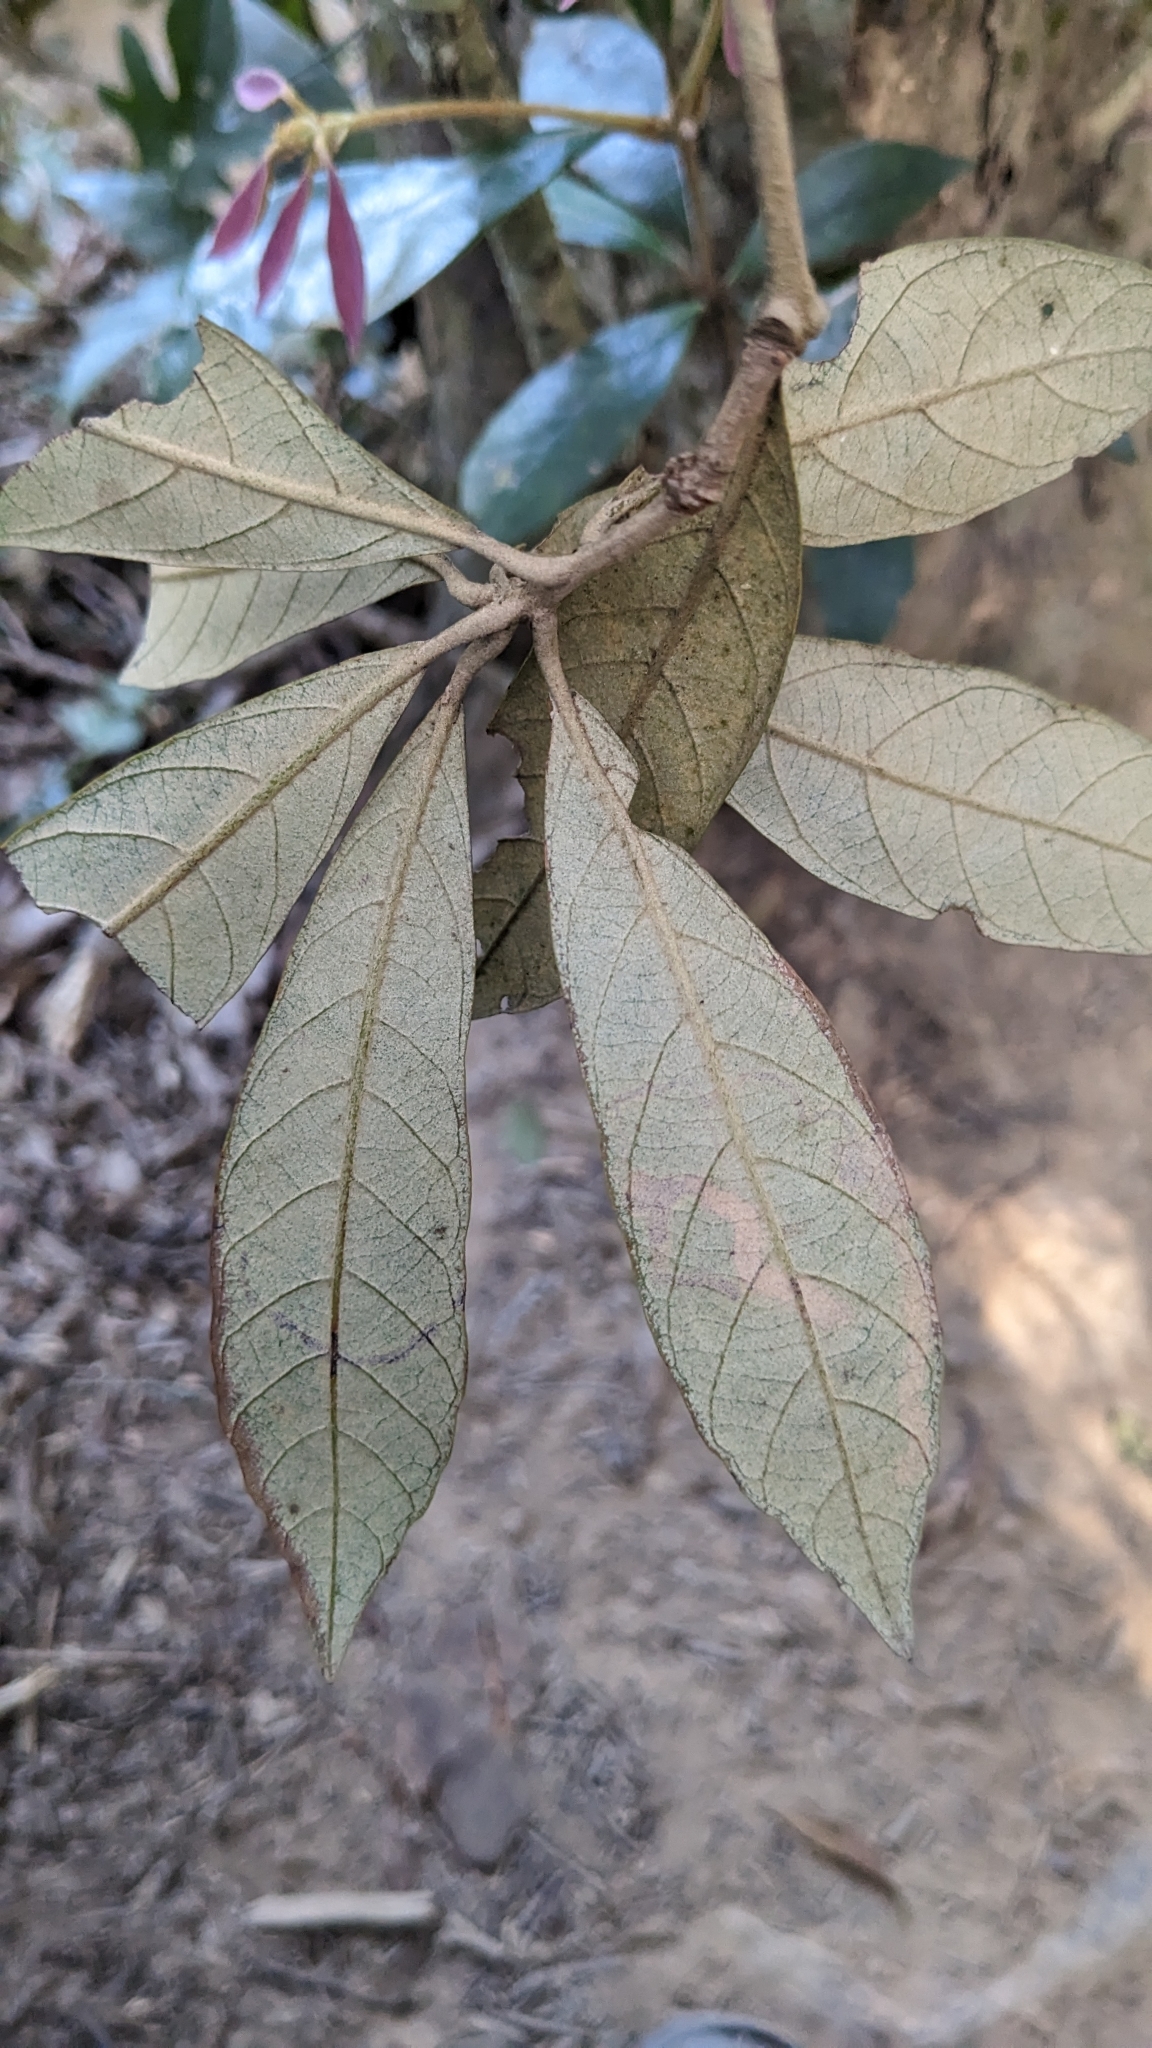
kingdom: Plantae
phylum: Tracheophyta
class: Magnoliopsida
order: Fagales
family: Fagaceae
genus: Quercus
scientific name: Quercus championii
